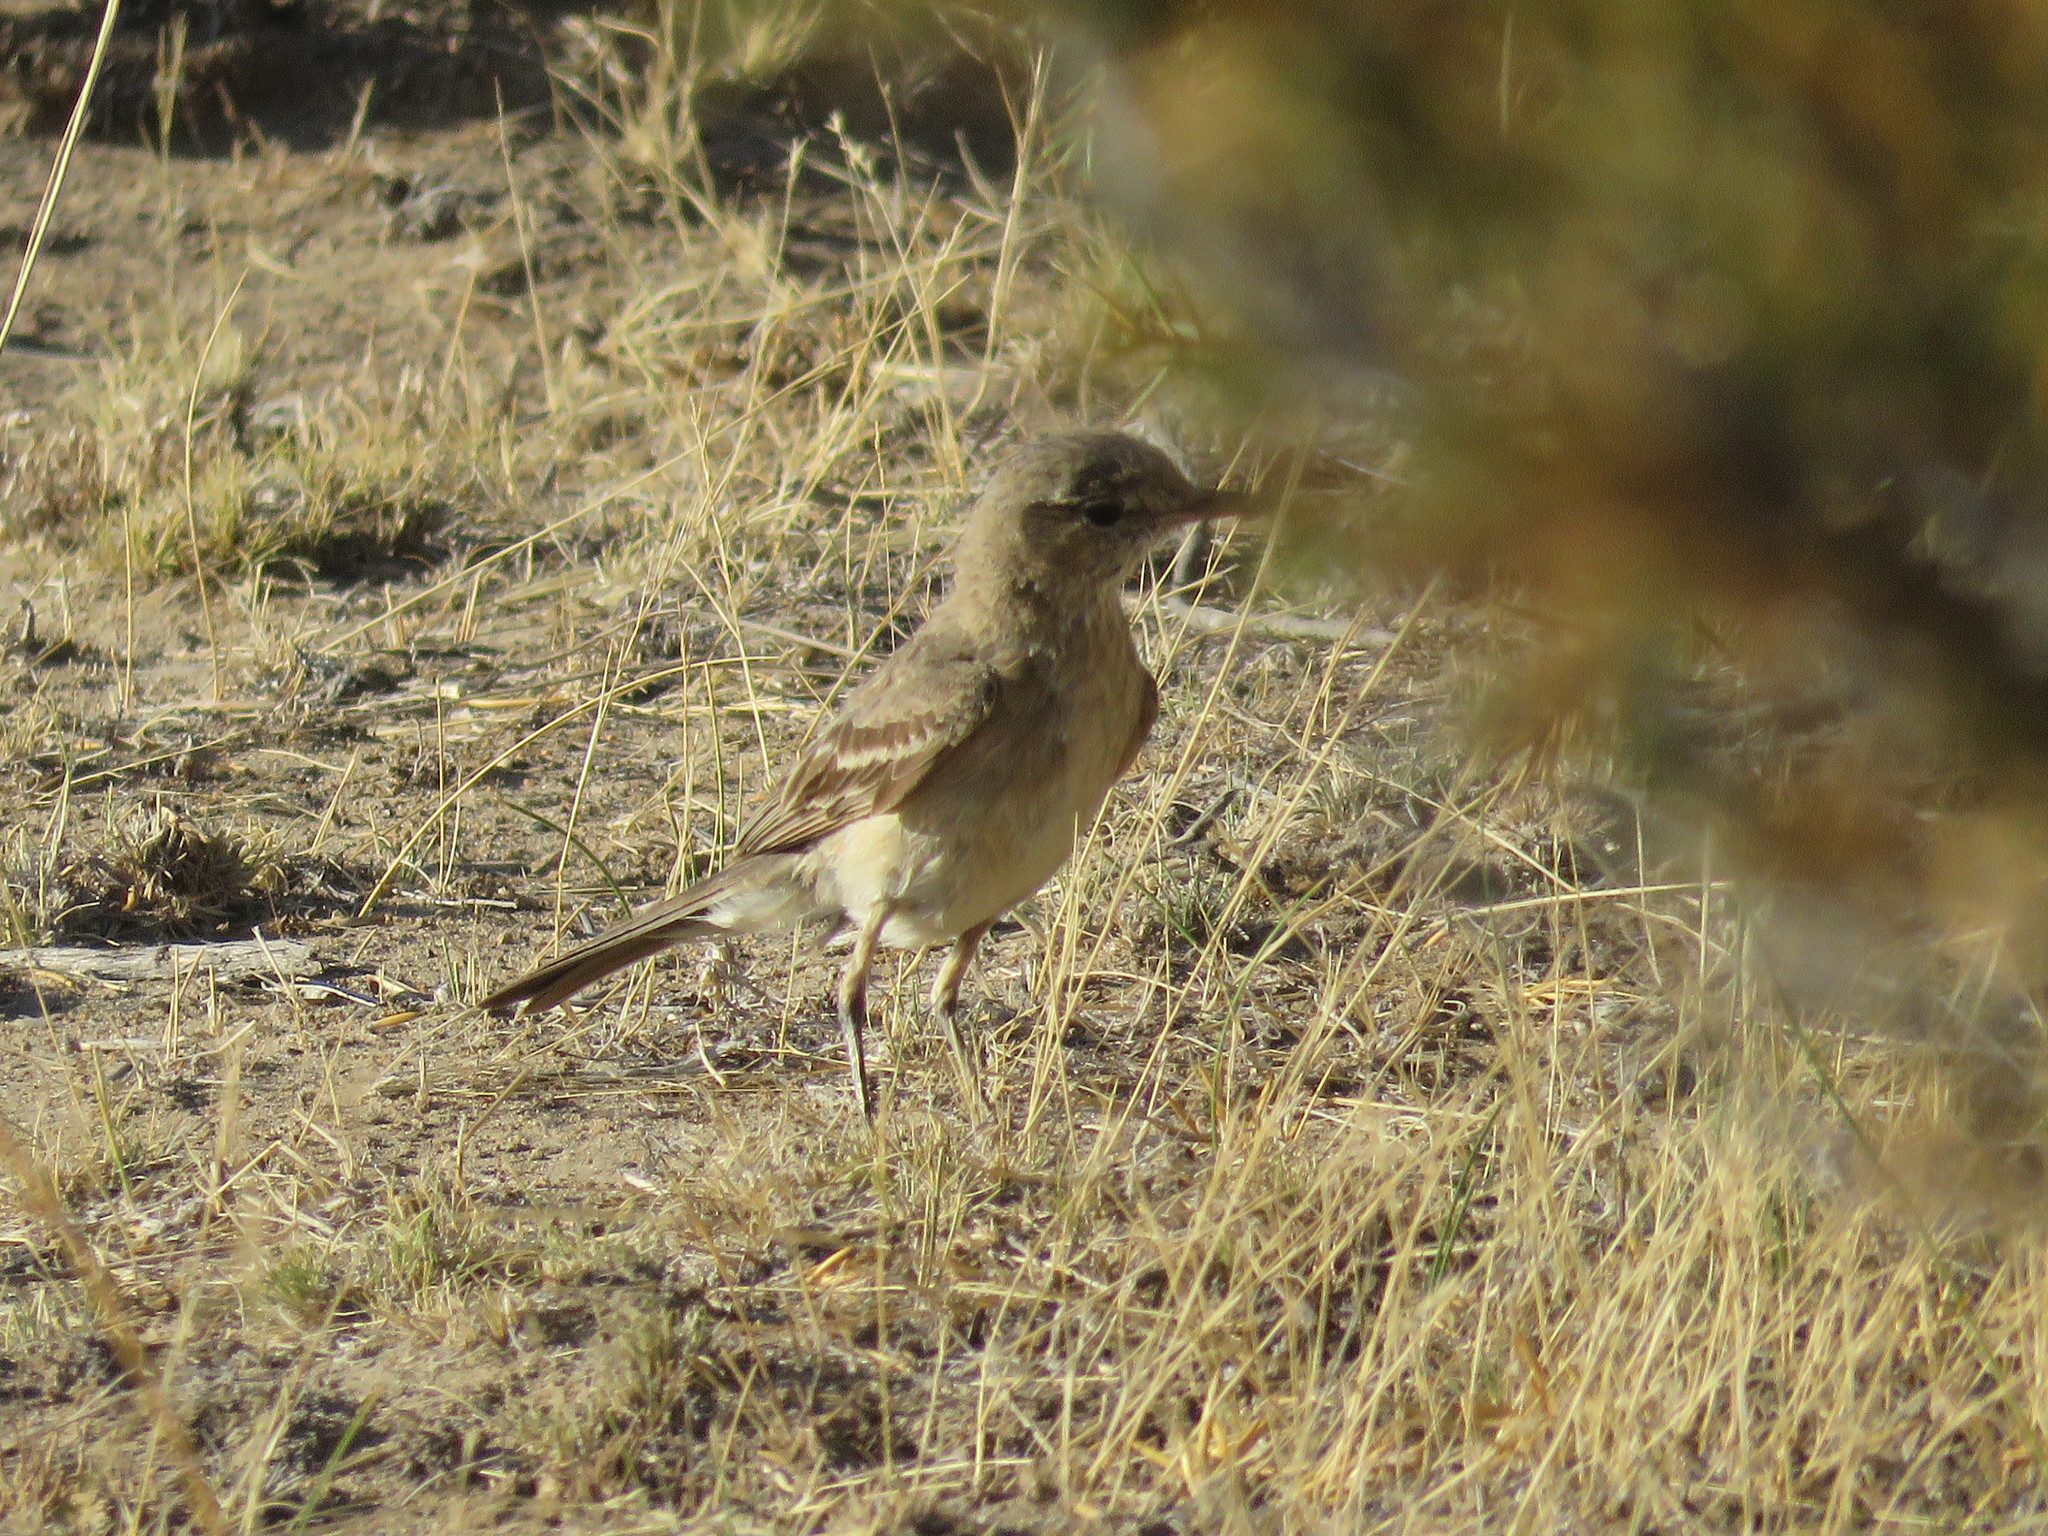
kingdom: Animalia
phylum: Chordata
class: Aves
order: Passeriformes
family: Tyrannidae
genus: Agriornis
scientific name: Agriornis murinus
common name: Lesser shrike-tyrant
